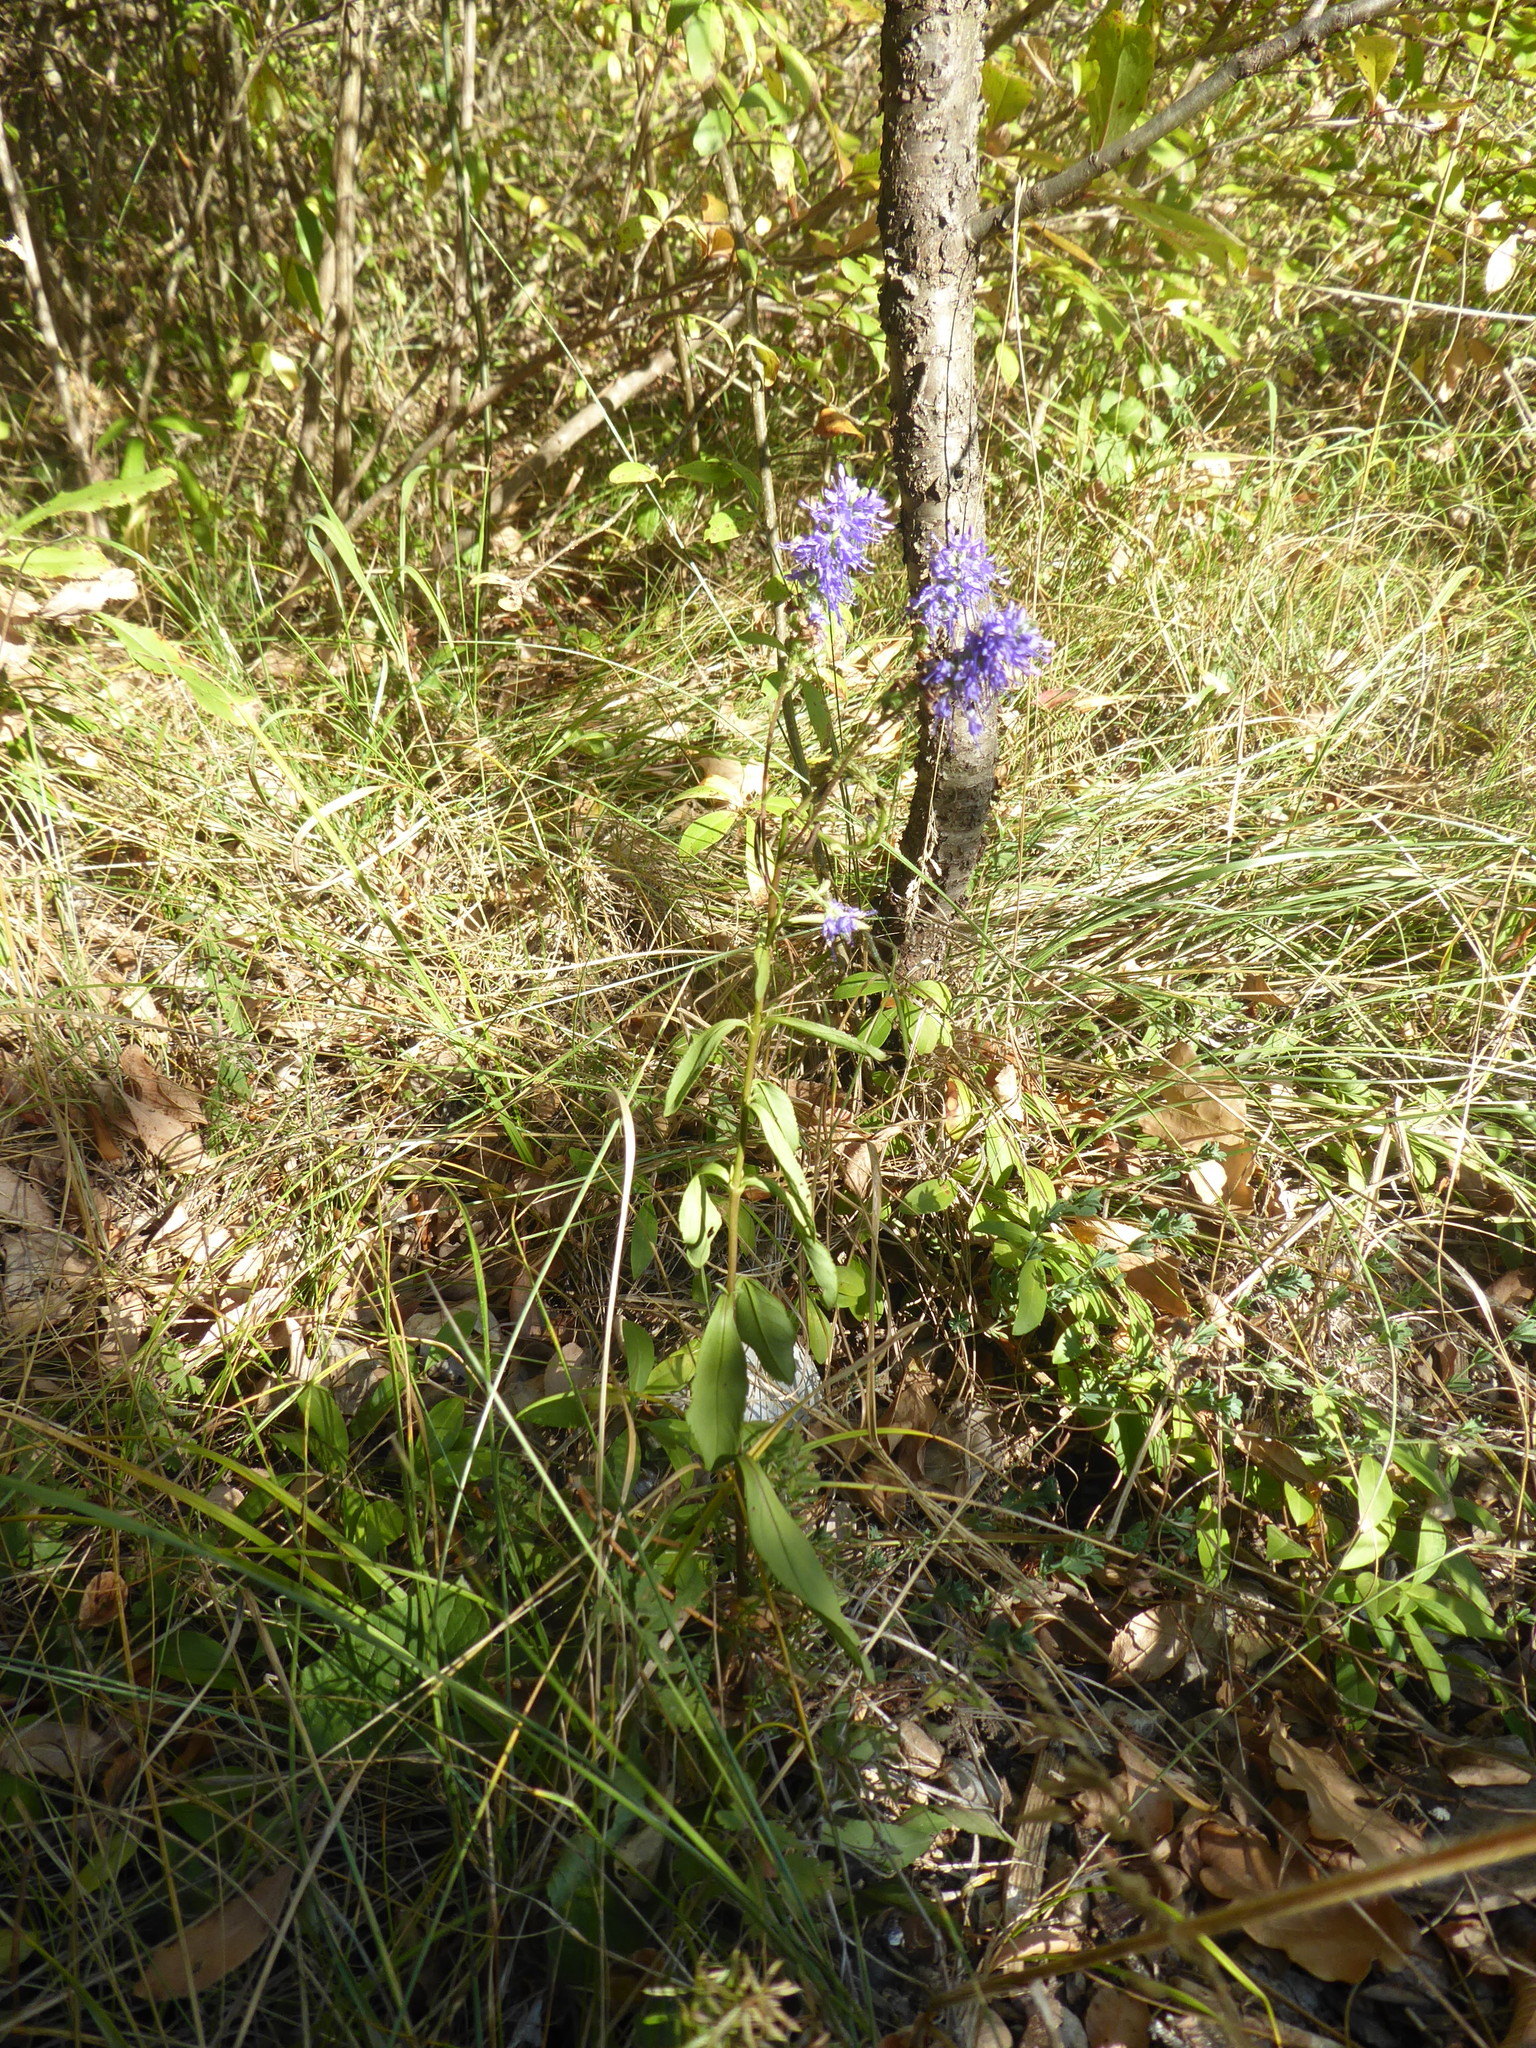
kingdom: Plantae
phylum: Tracheophyta
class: Magnoliopsida
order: Lamiales
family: Plantaginaceae
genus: Veronica
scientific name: Veronica spicata
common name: Spiked speedwell
